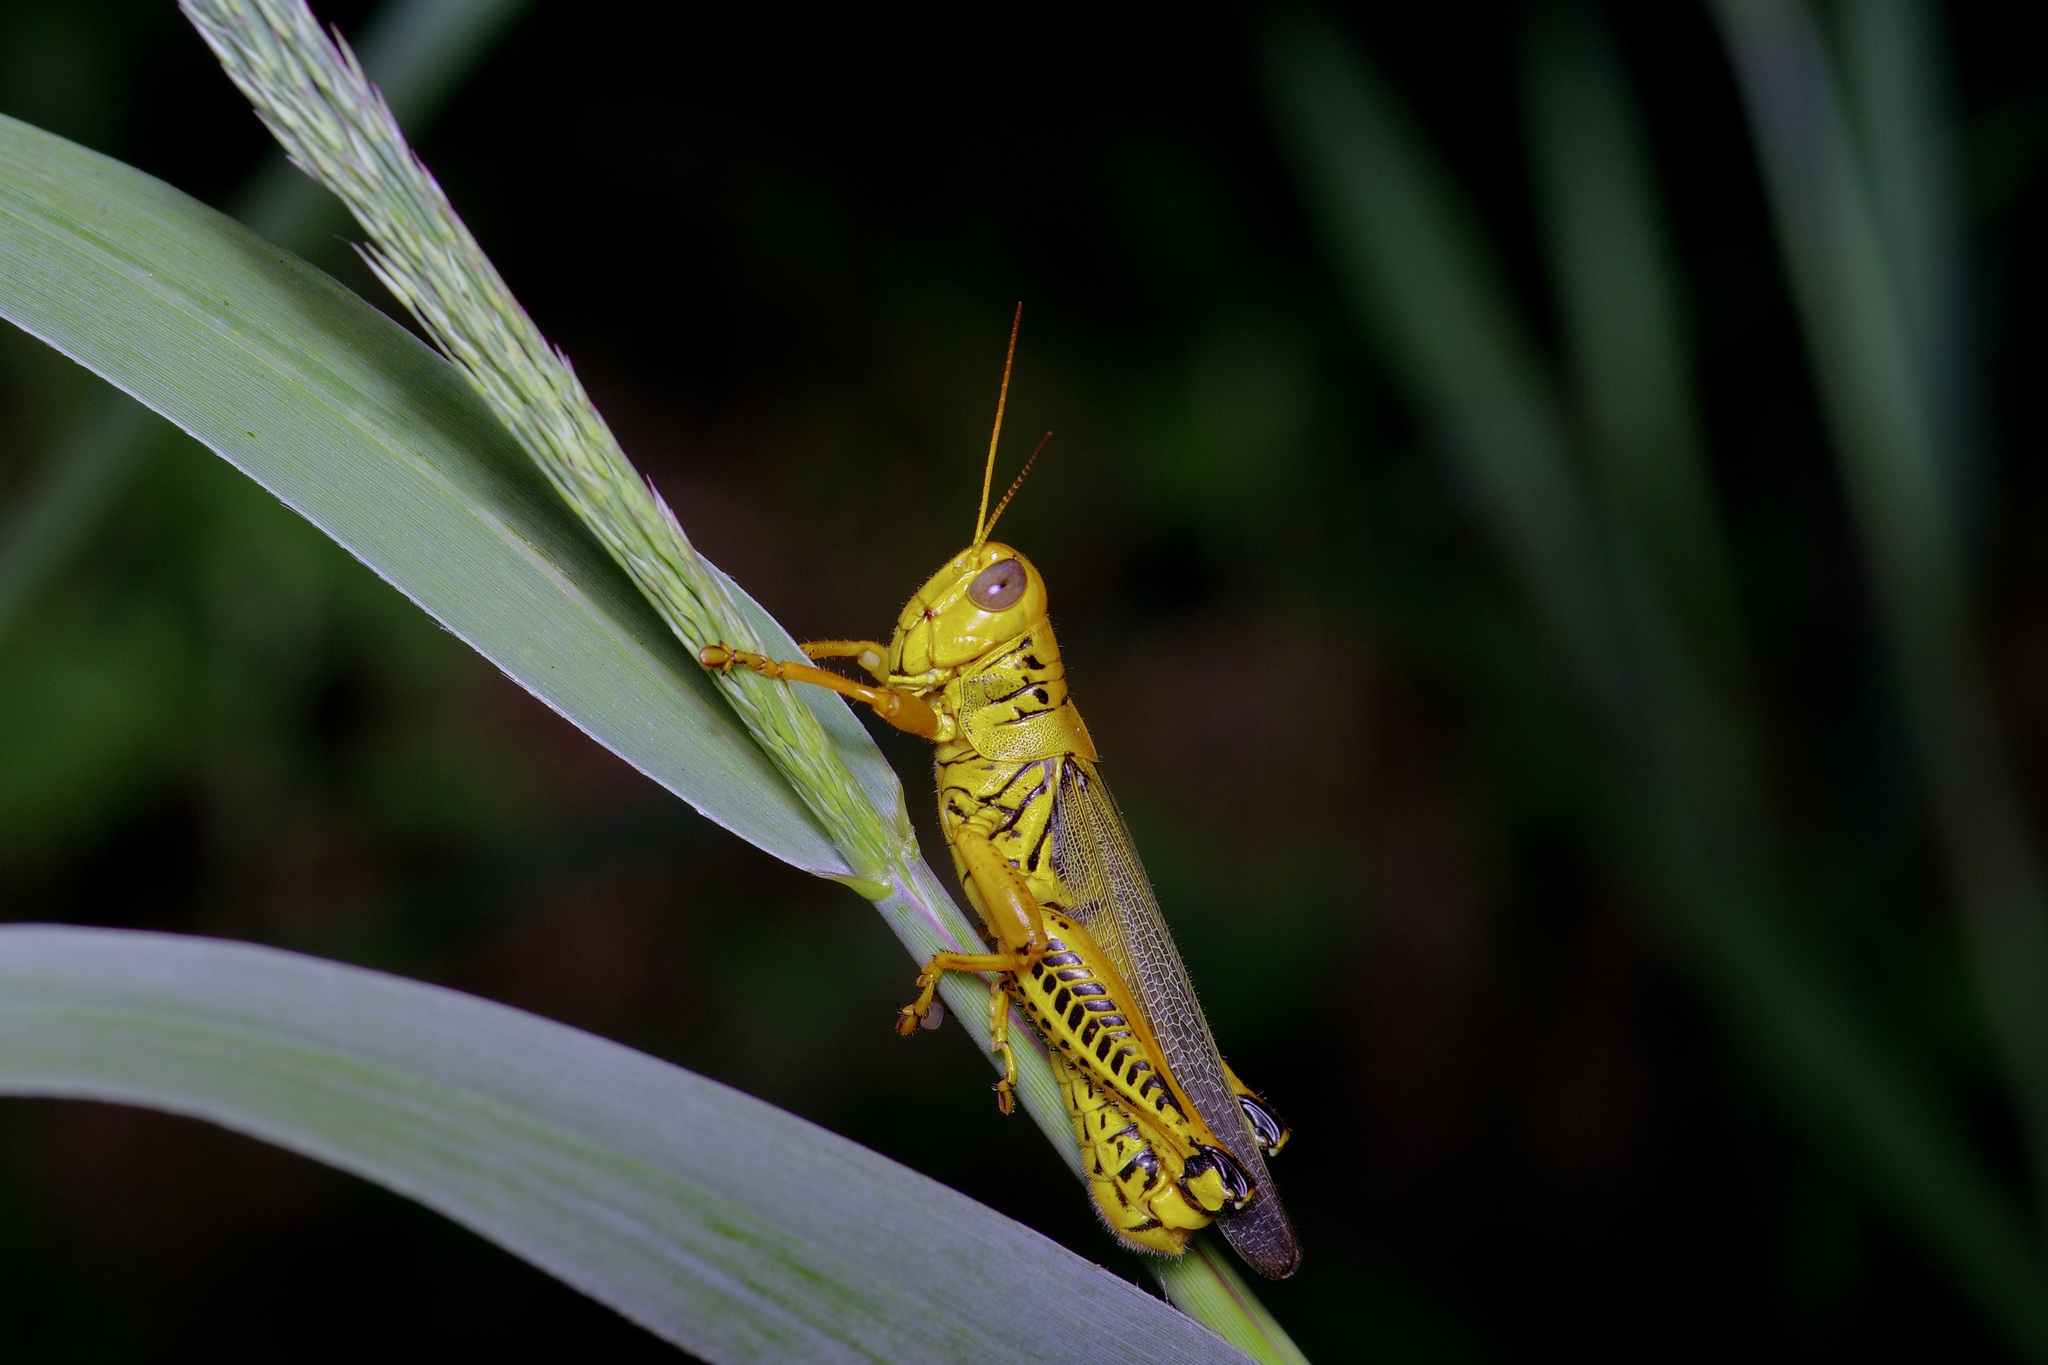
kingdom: Animalia
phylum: Arthropoda
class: Insecta
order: Orthoptera
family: Acrididae
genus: Melanoplus
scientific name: Melanoplus differentialis
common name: Differential grasshopper
